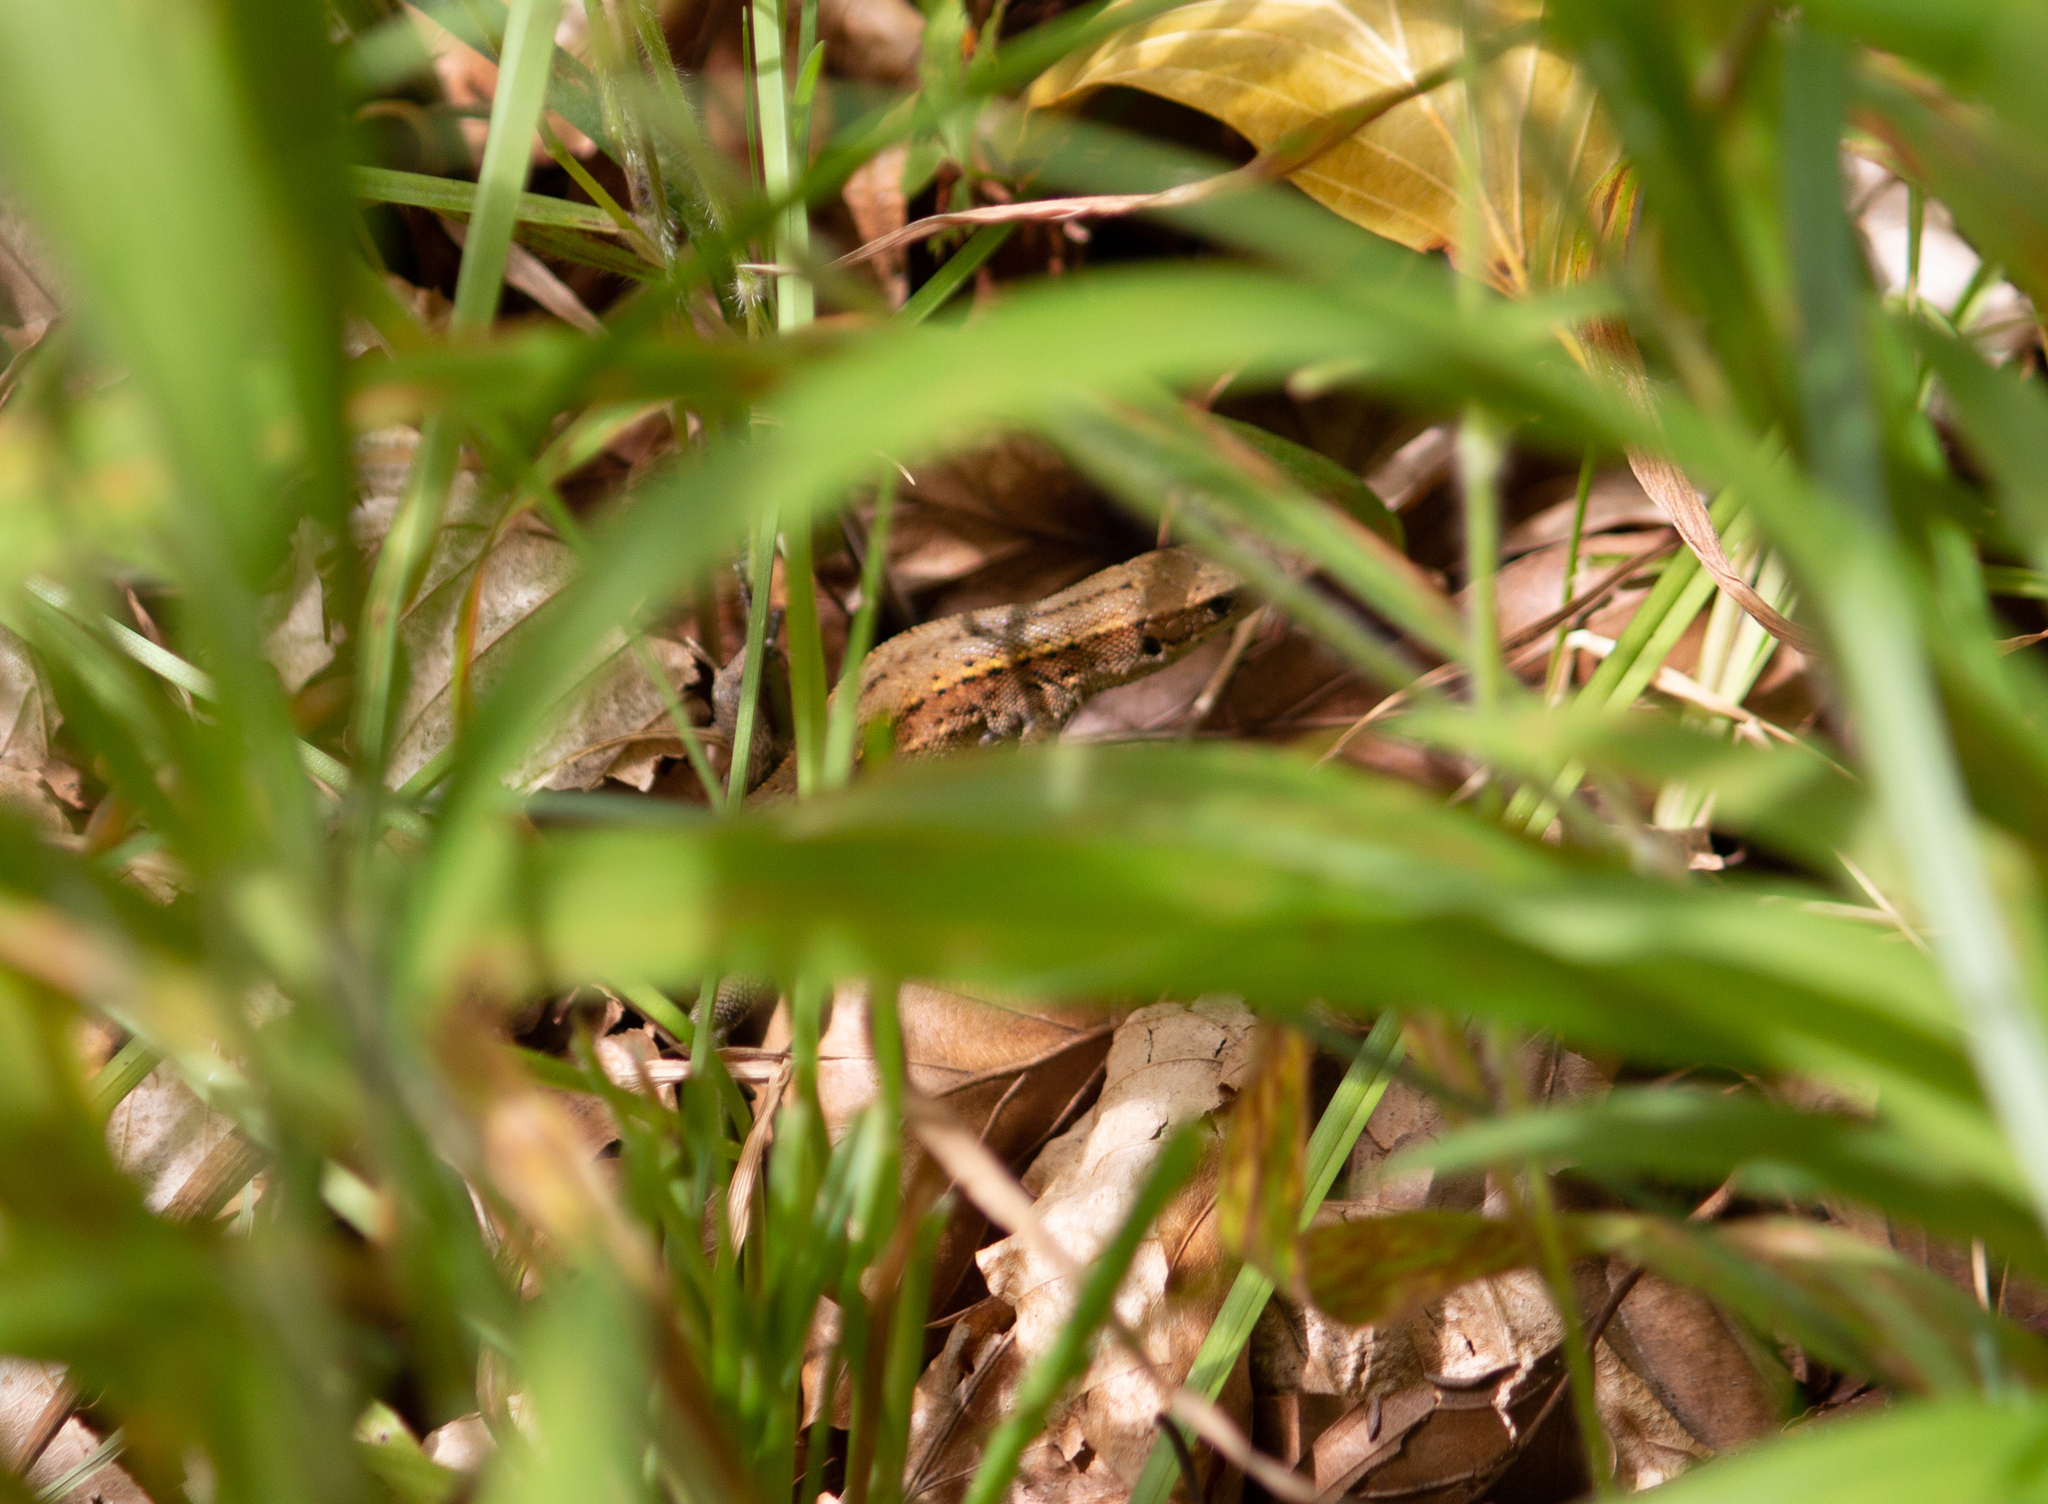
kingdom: Animalia
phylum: Chordata
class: Squamata
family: Lacertidae
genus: Zootoca
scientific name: Zootoca vivipara
